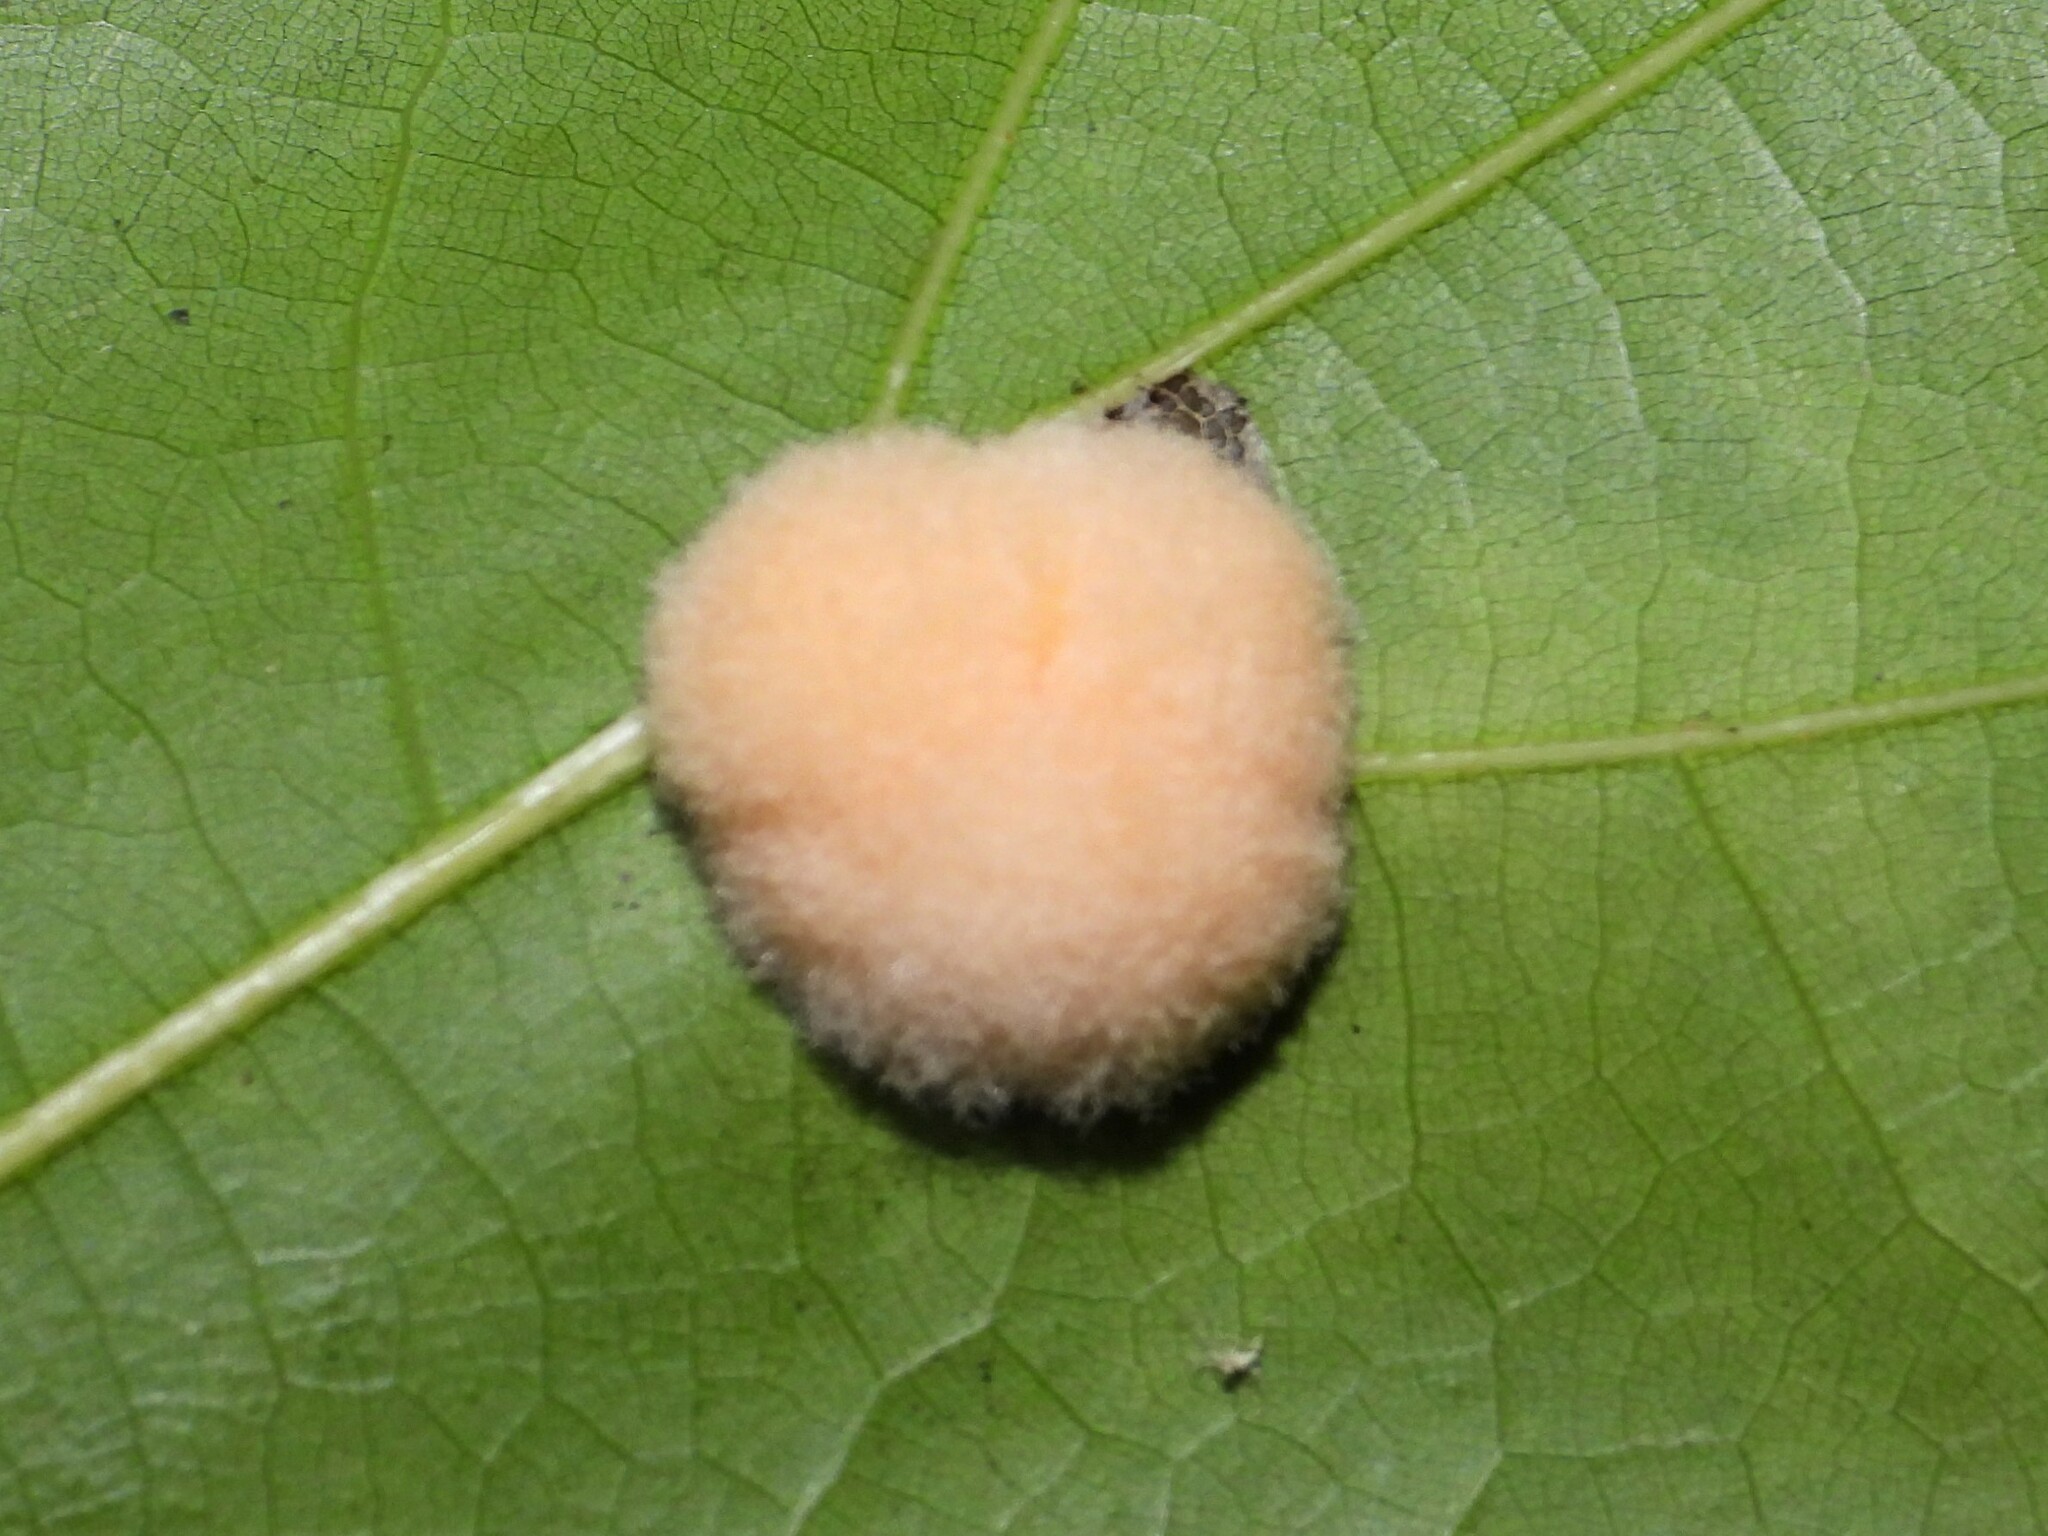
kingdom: Animalia
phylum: Arthropoda
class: Insecta
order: Hymenoptera
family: Cynipidae
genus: Callirhytis
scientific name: Callirhytis
